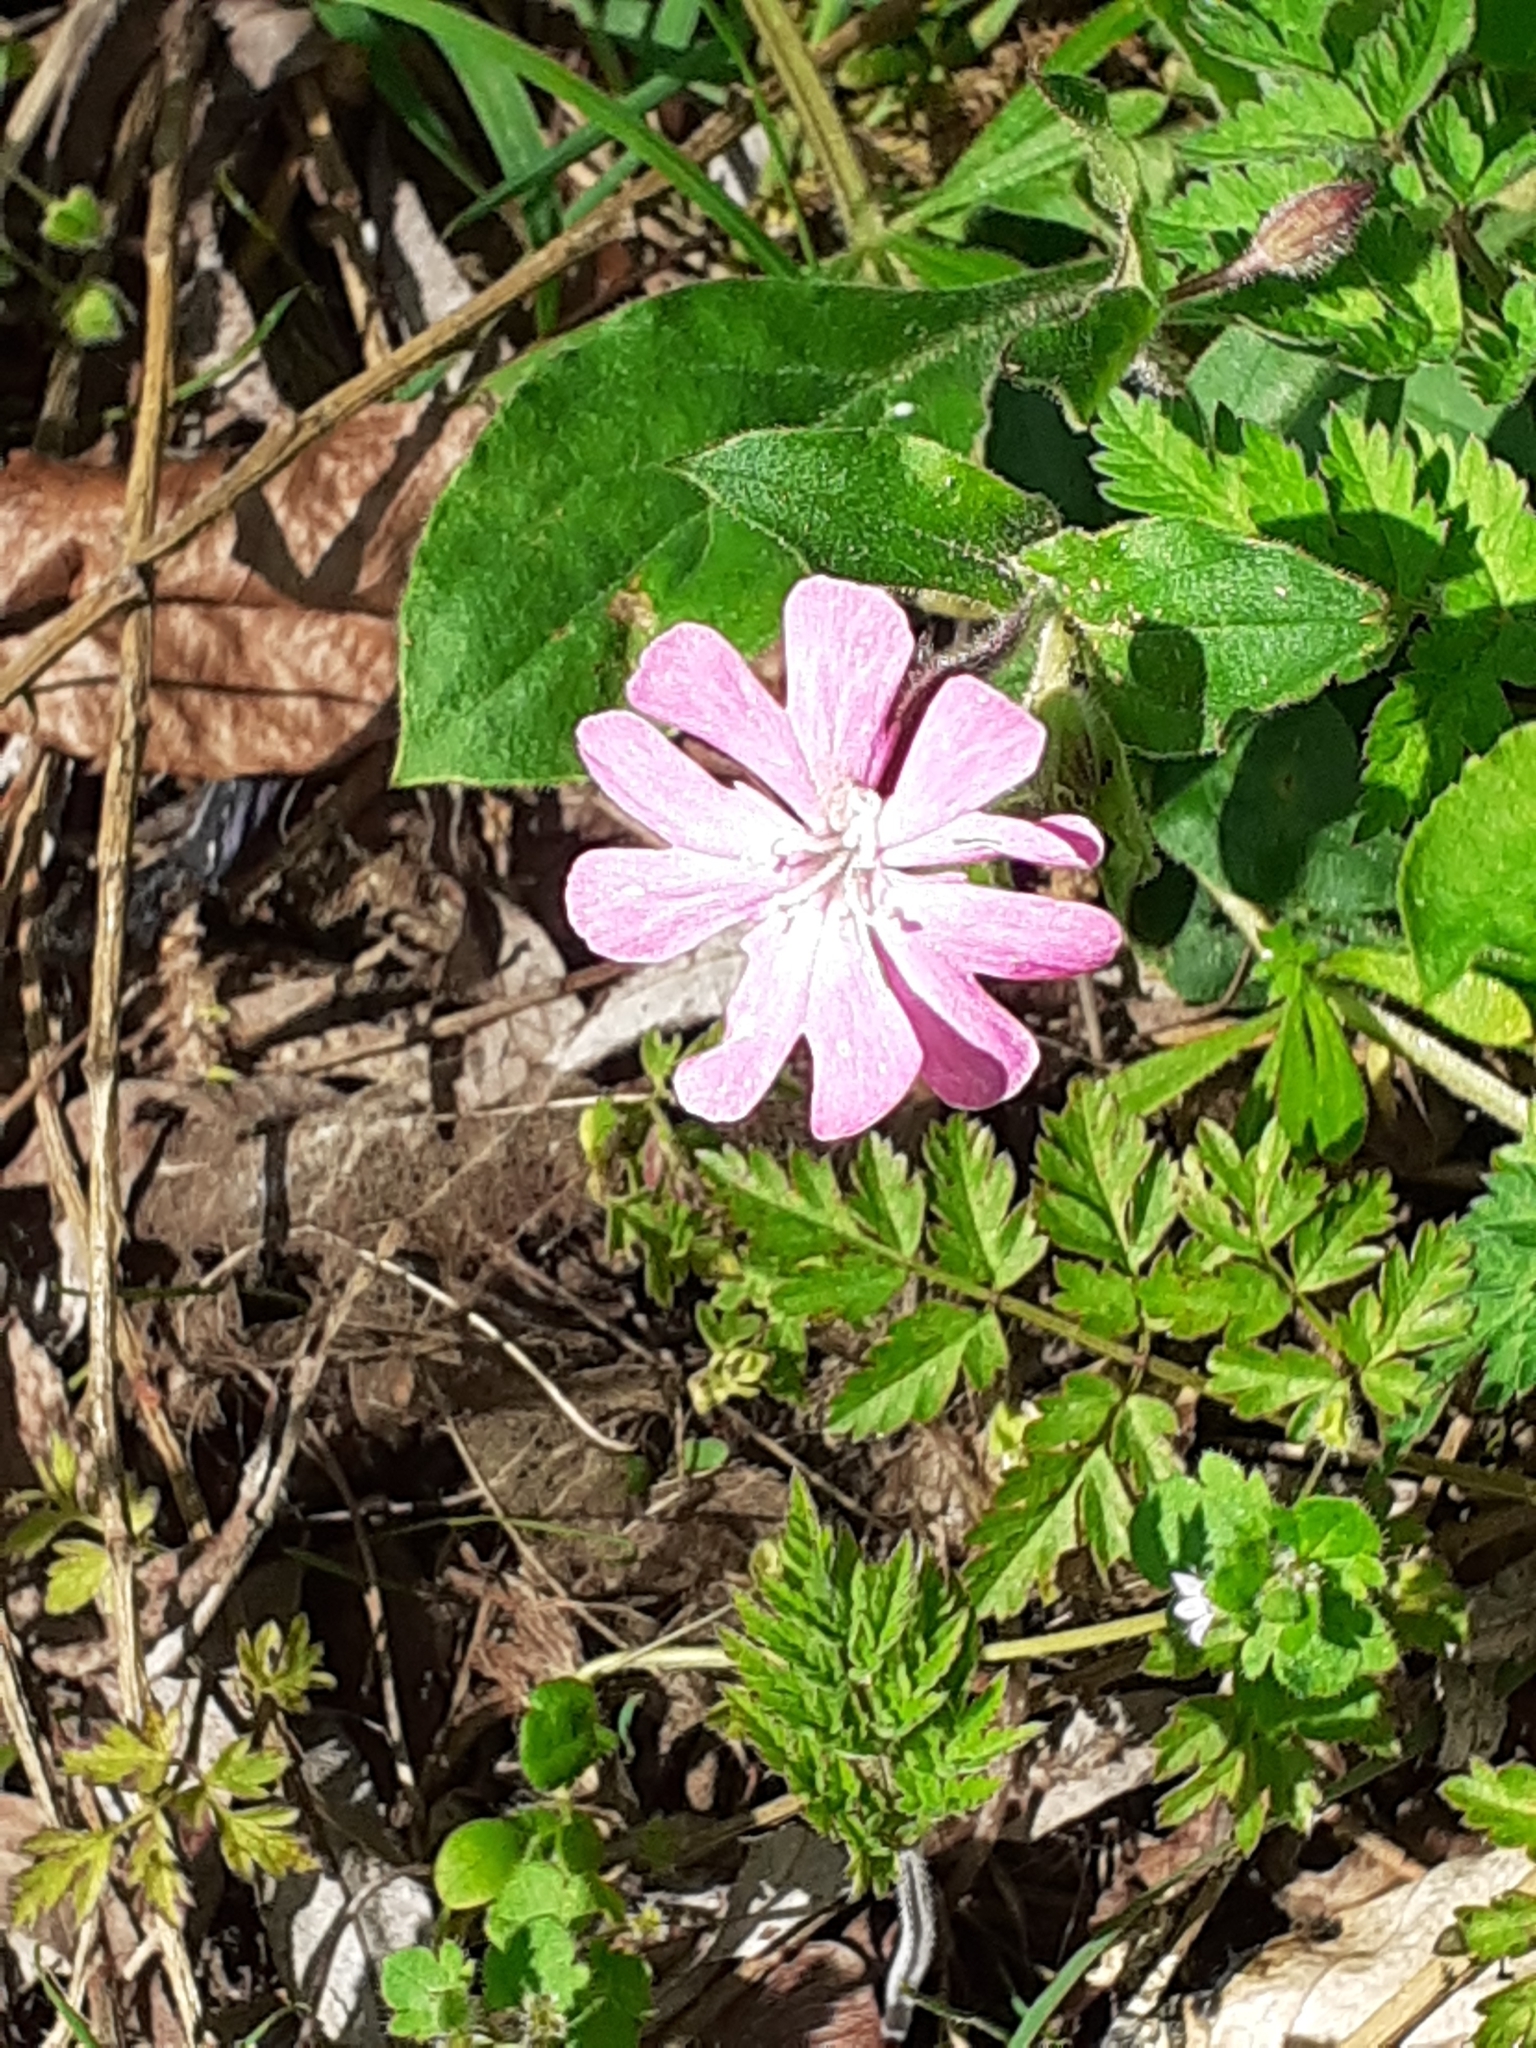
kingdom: Plantae
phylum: Tracheophyta
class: Magnoliopsida
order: Caryophyllales
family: Caryophyllaceae
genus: Silene
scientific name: Silene dioica
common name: Red campion
